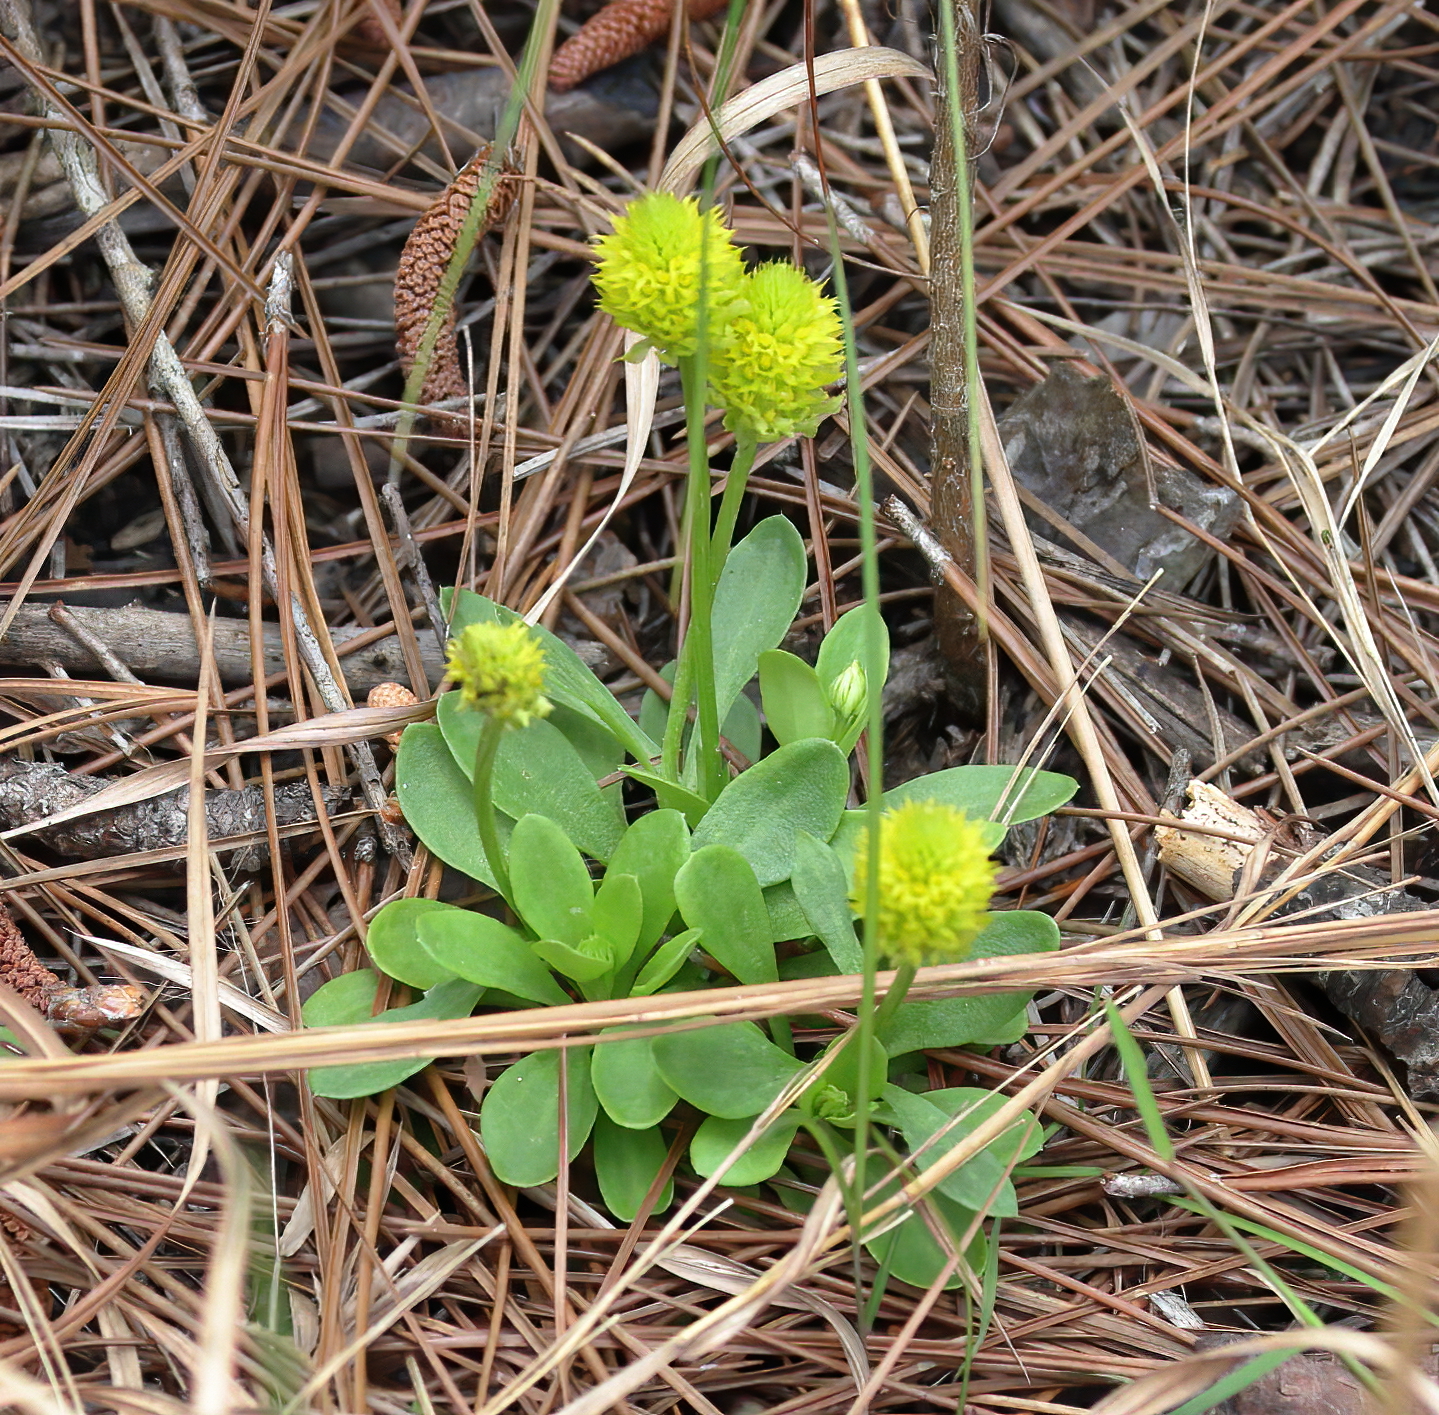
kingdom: Plantae
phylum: Tracheophyta
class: Magnoliopsida
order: Fabales
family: Polygalaceae
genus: Polygala
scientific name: Polygala nana
